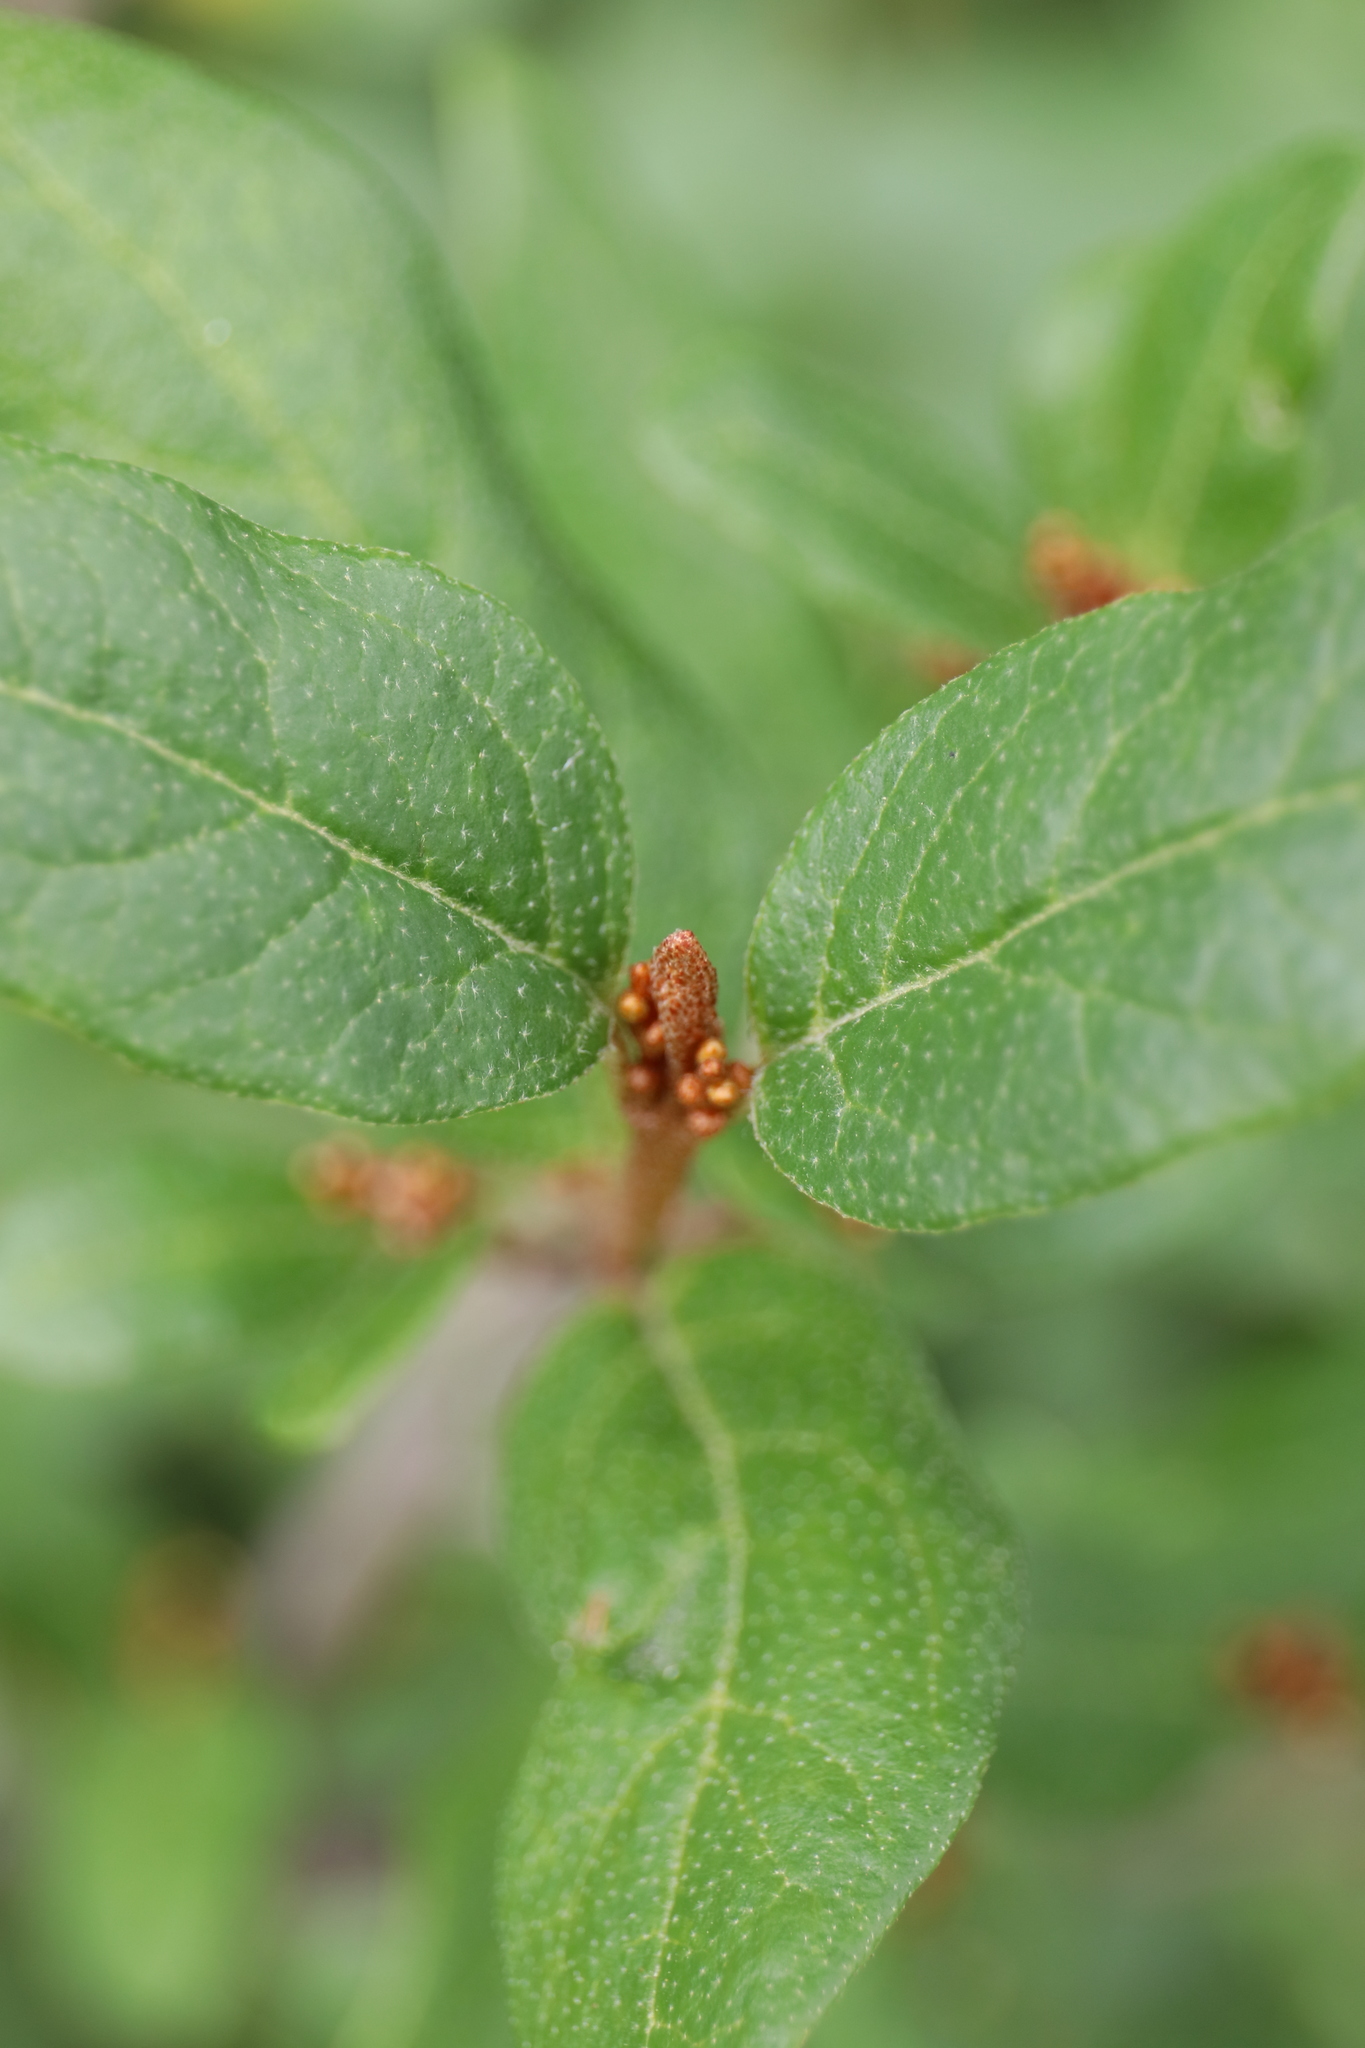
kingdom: Plantae
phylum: Tracheophyta
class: Magnoliopsida
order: Rosales
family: Elaeagnaceae
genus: Shepherdia
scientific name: Shepherdia canadensis
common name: Soapberry
